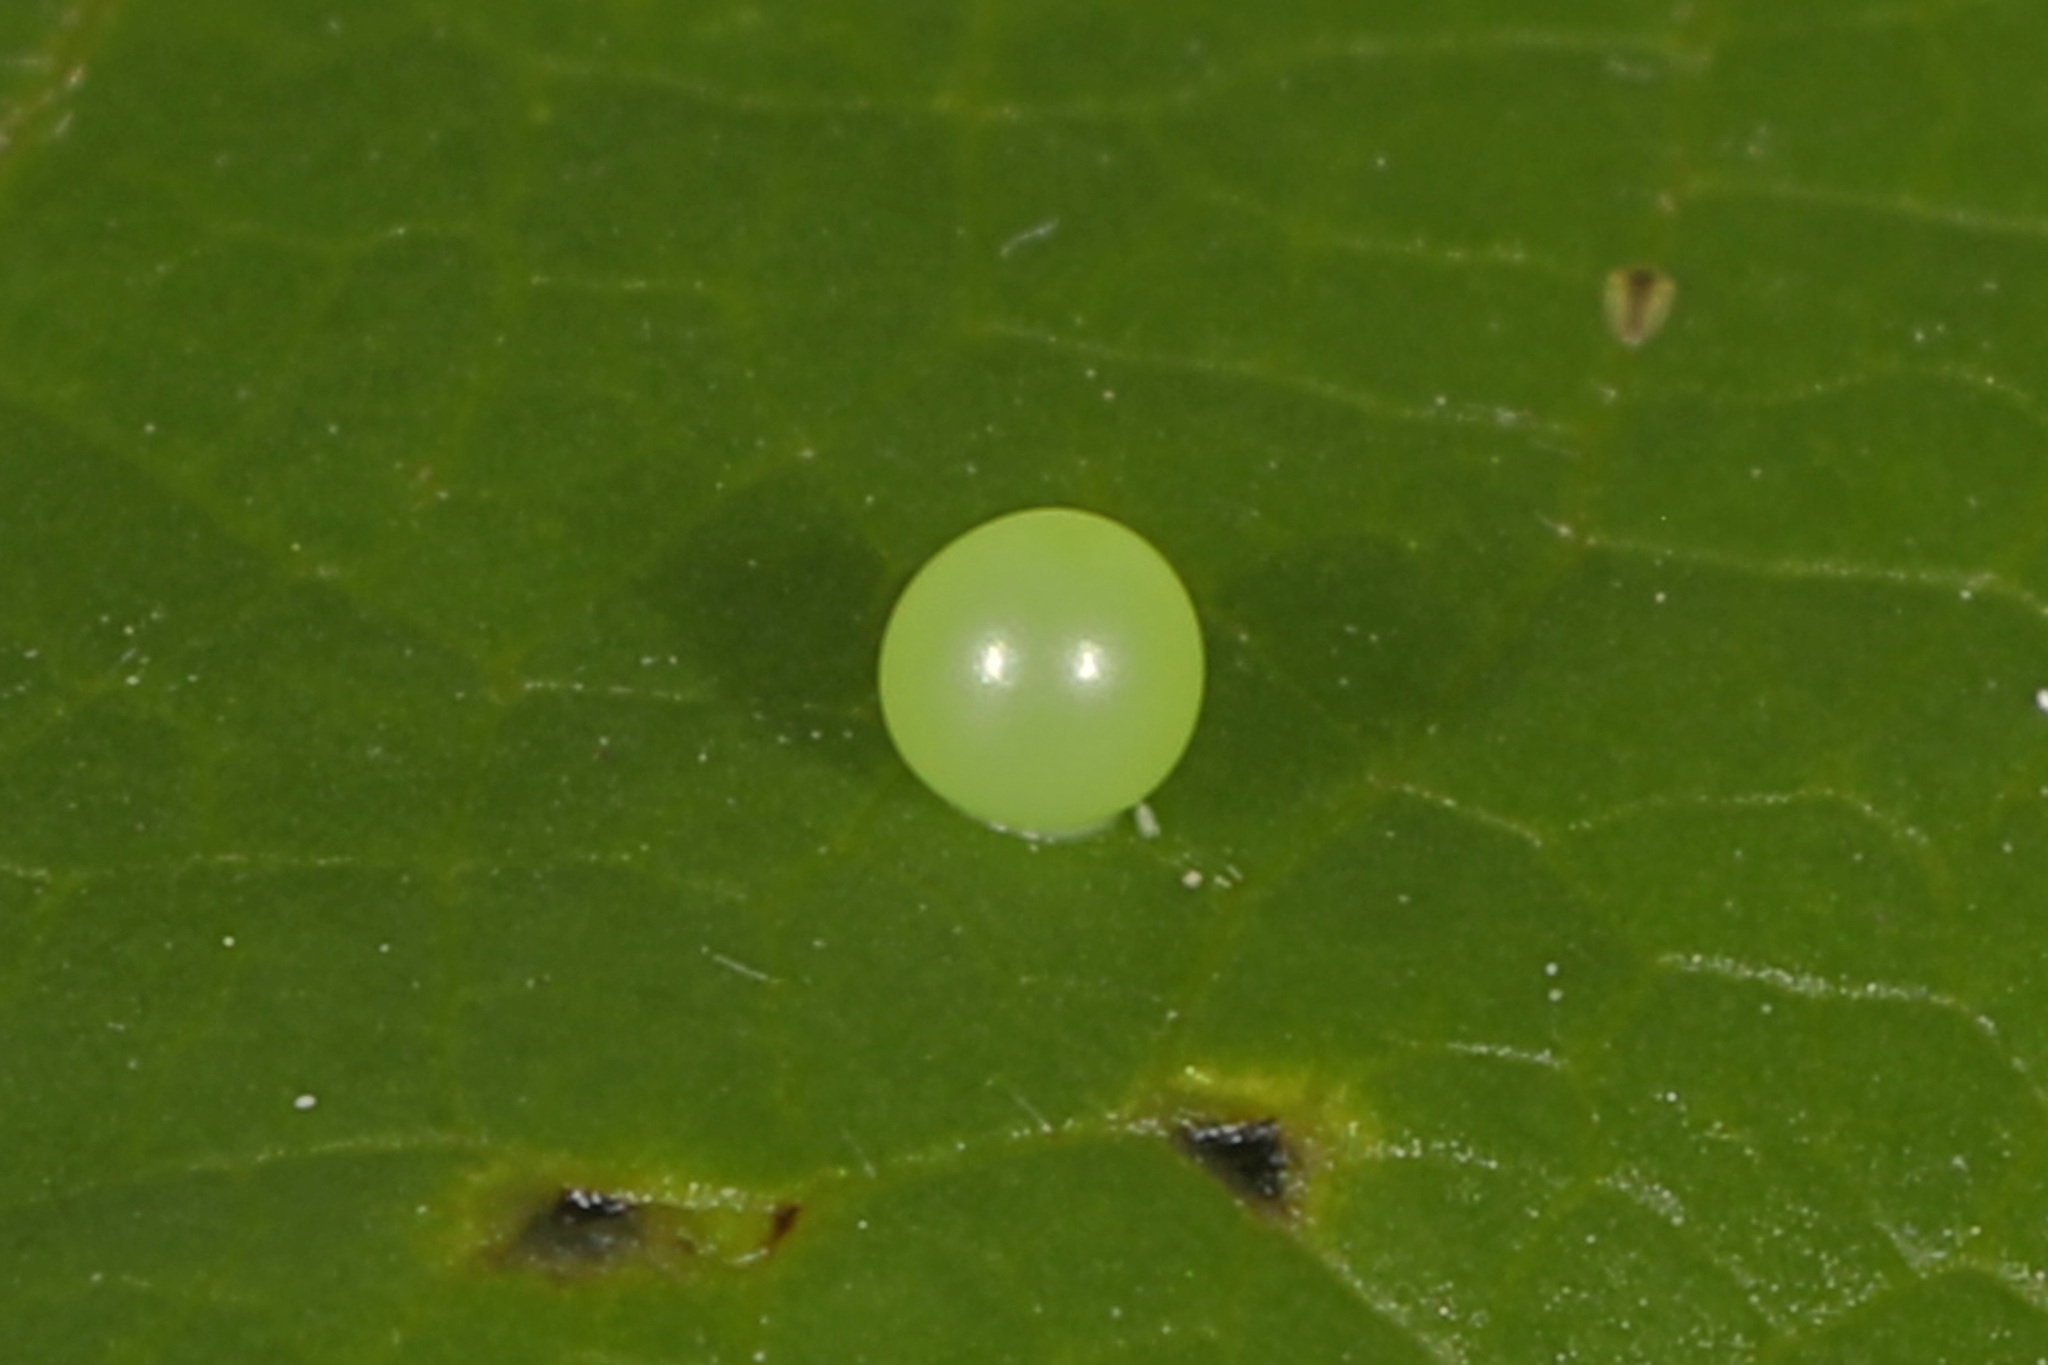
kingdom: Animalia
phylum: Arthropoda
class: Insecta
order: Lepidoptera
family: Papilionidae
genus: Protographium
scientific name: Protographium marcellus
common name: Zebra swallowtail
